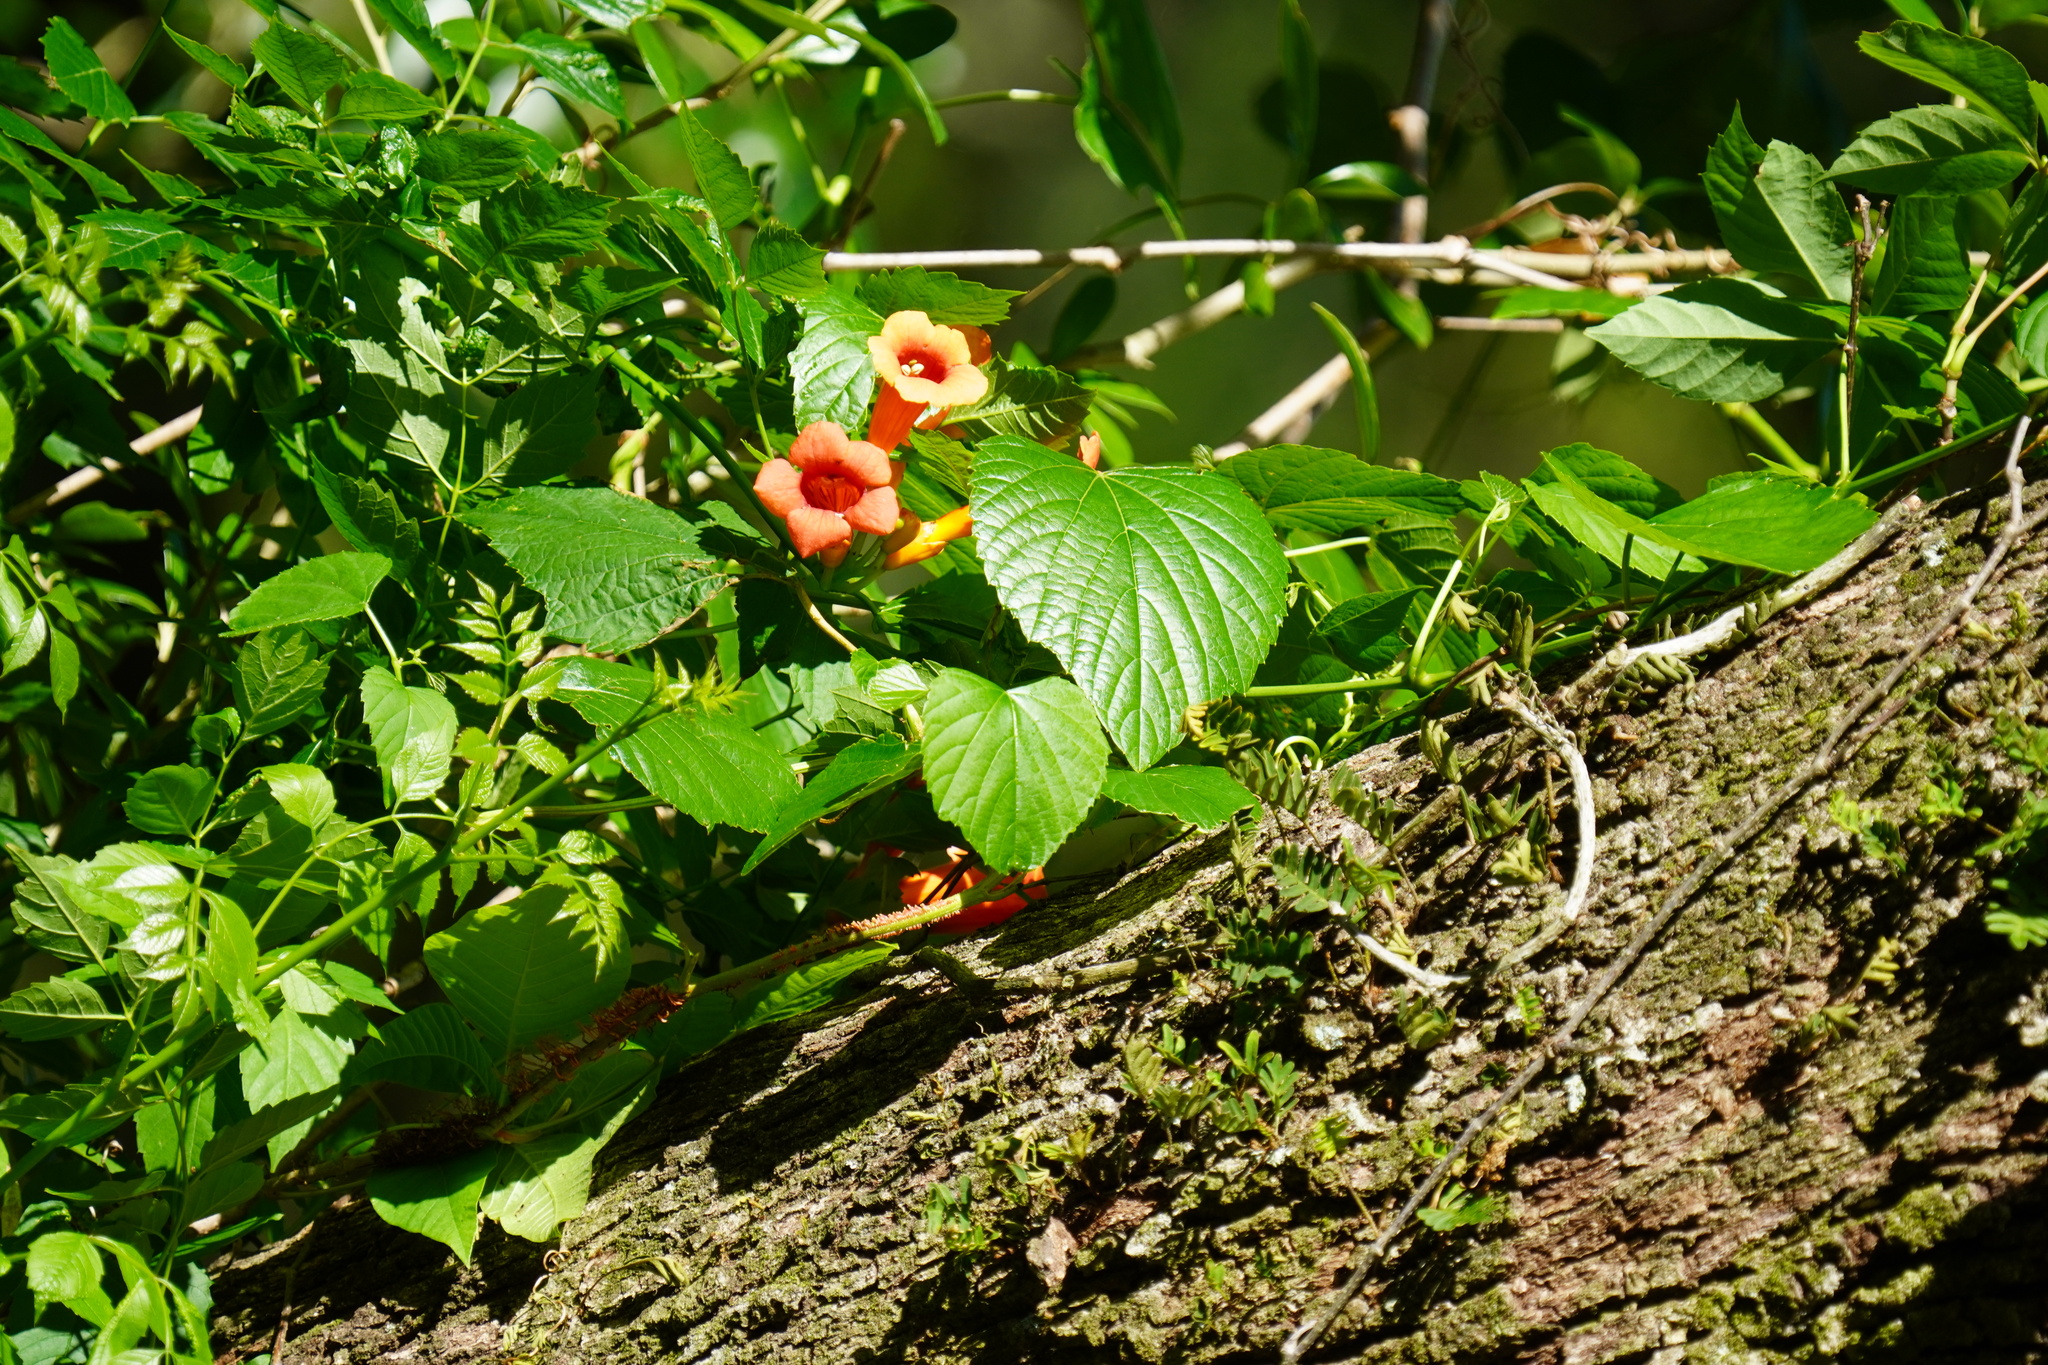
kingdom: Plantae
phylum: Tracheophyta
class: Magnoliopsida
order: Lamiales
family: Bignoniaceae
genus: Campsis
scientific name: Campsis radicans
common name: Trumpet-creeper
